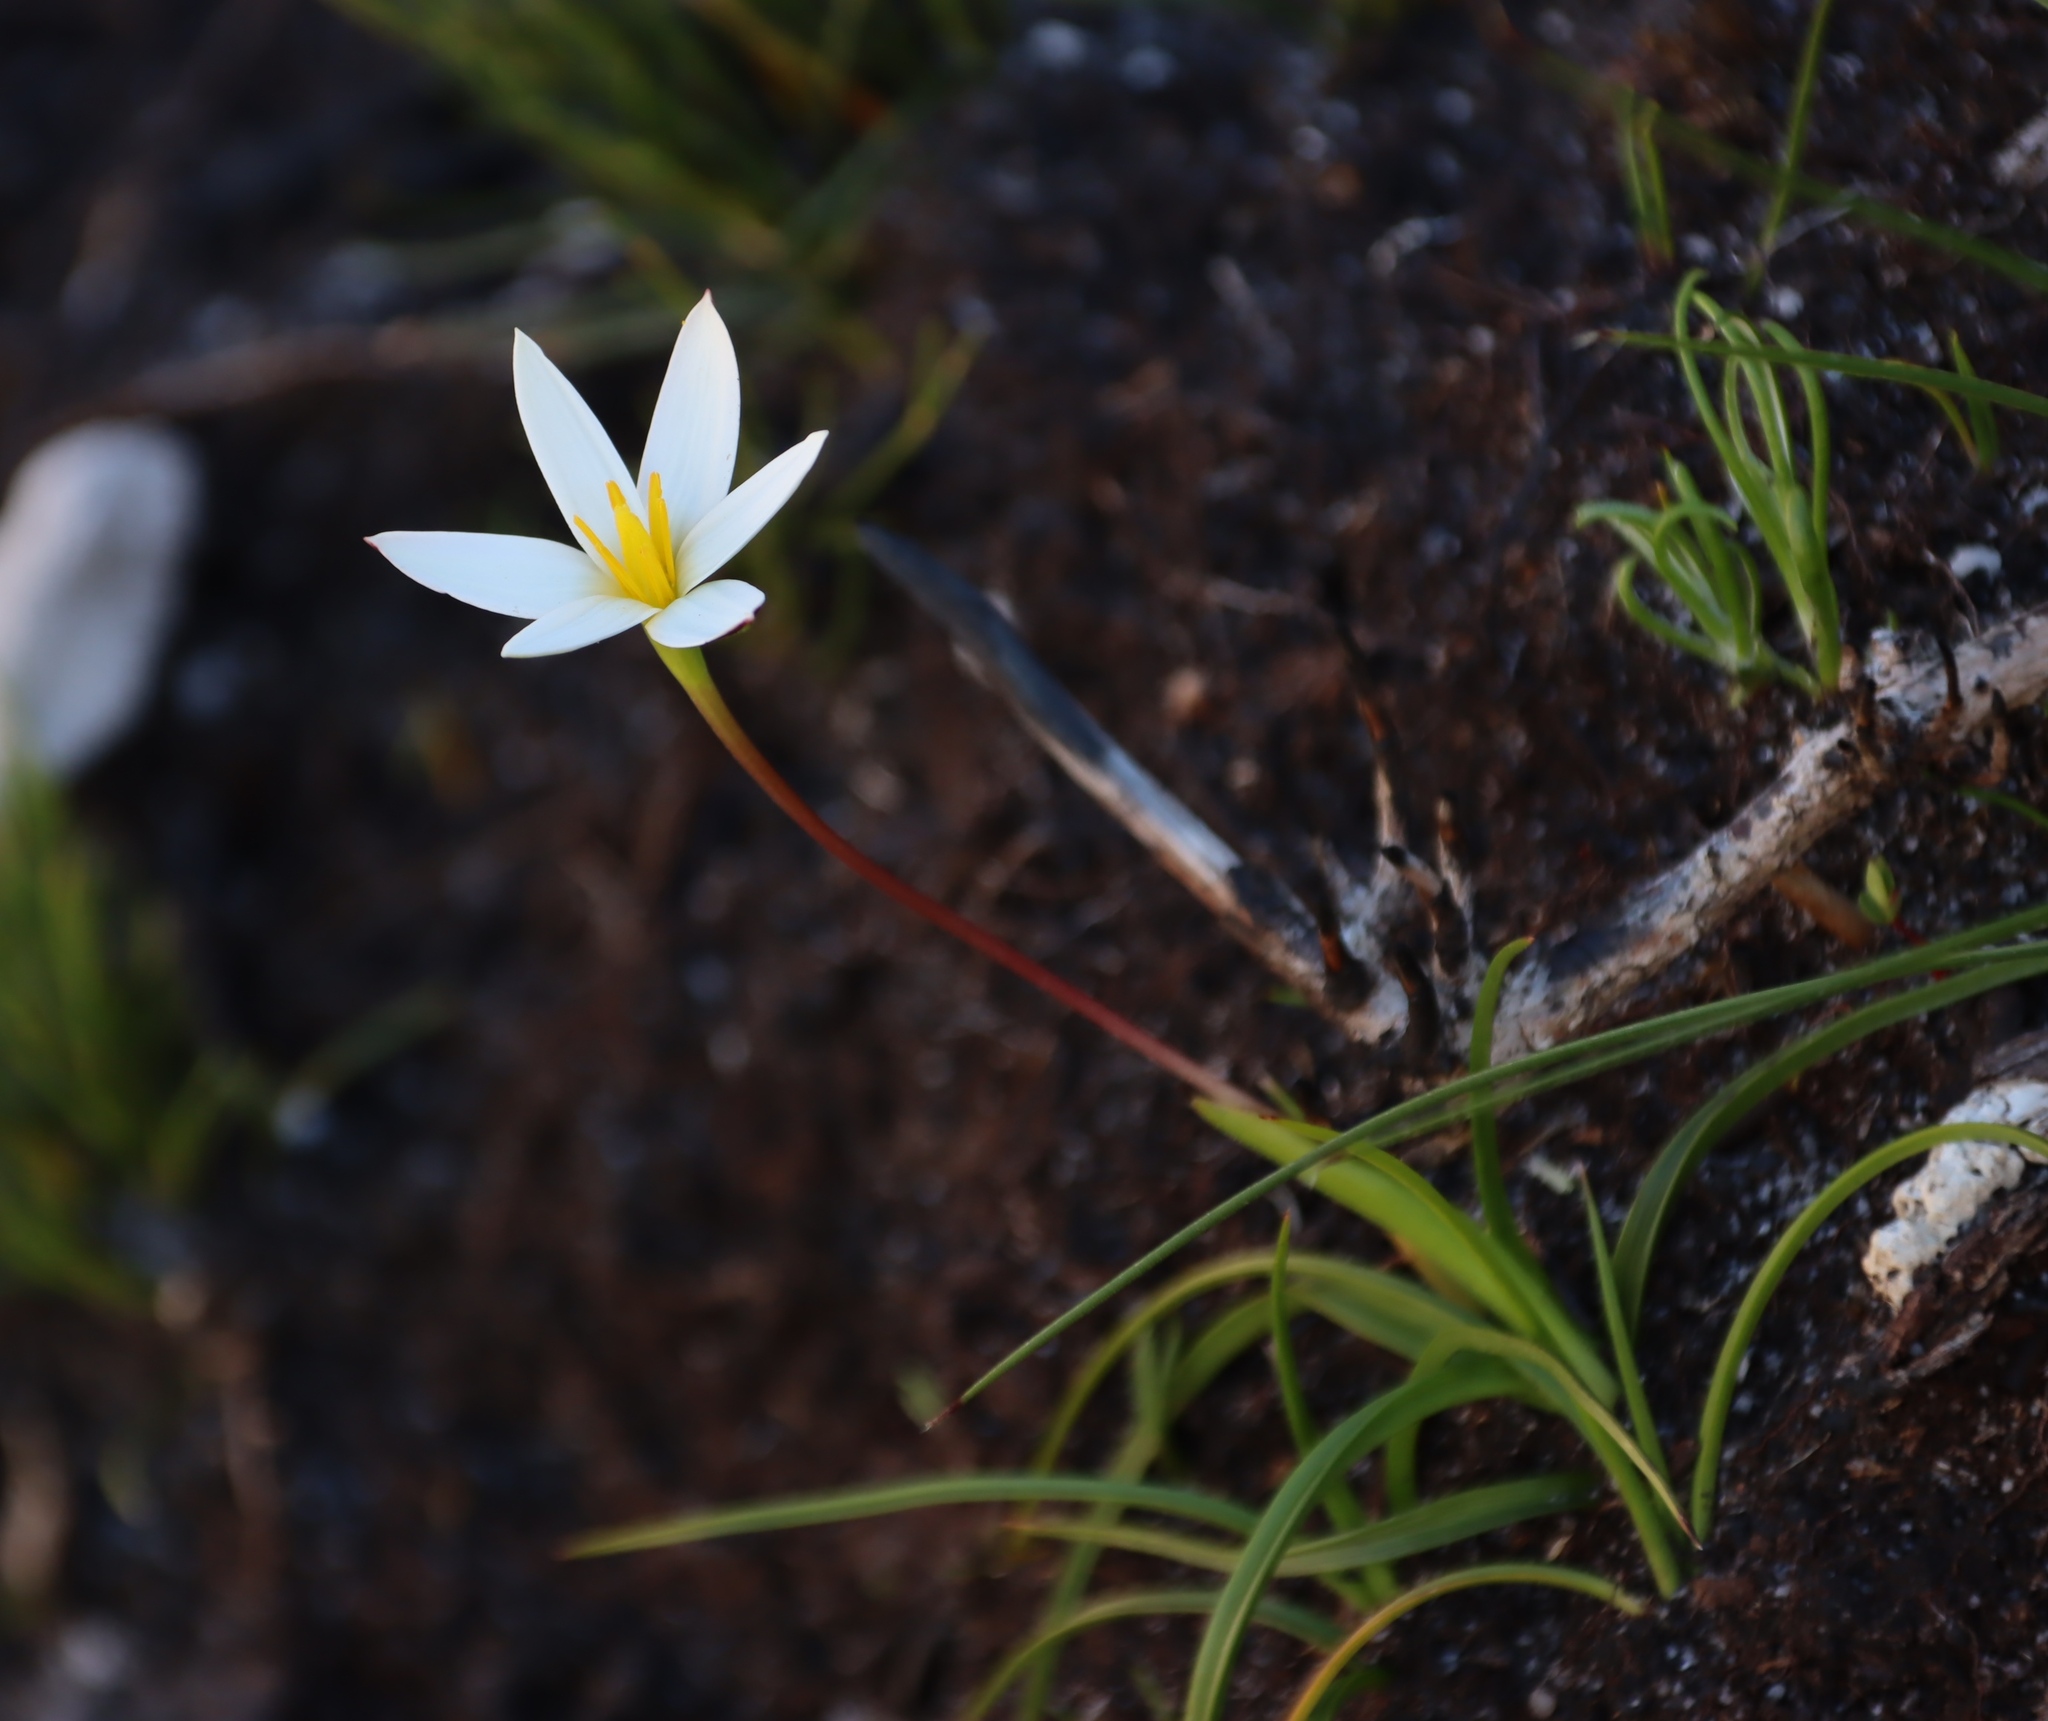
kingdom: Plantae
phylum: Tracheophyta
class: Liliopsida
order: Asparagales
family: Hypoxidaceae
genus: Pauridia
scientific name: Pauridia capensis
